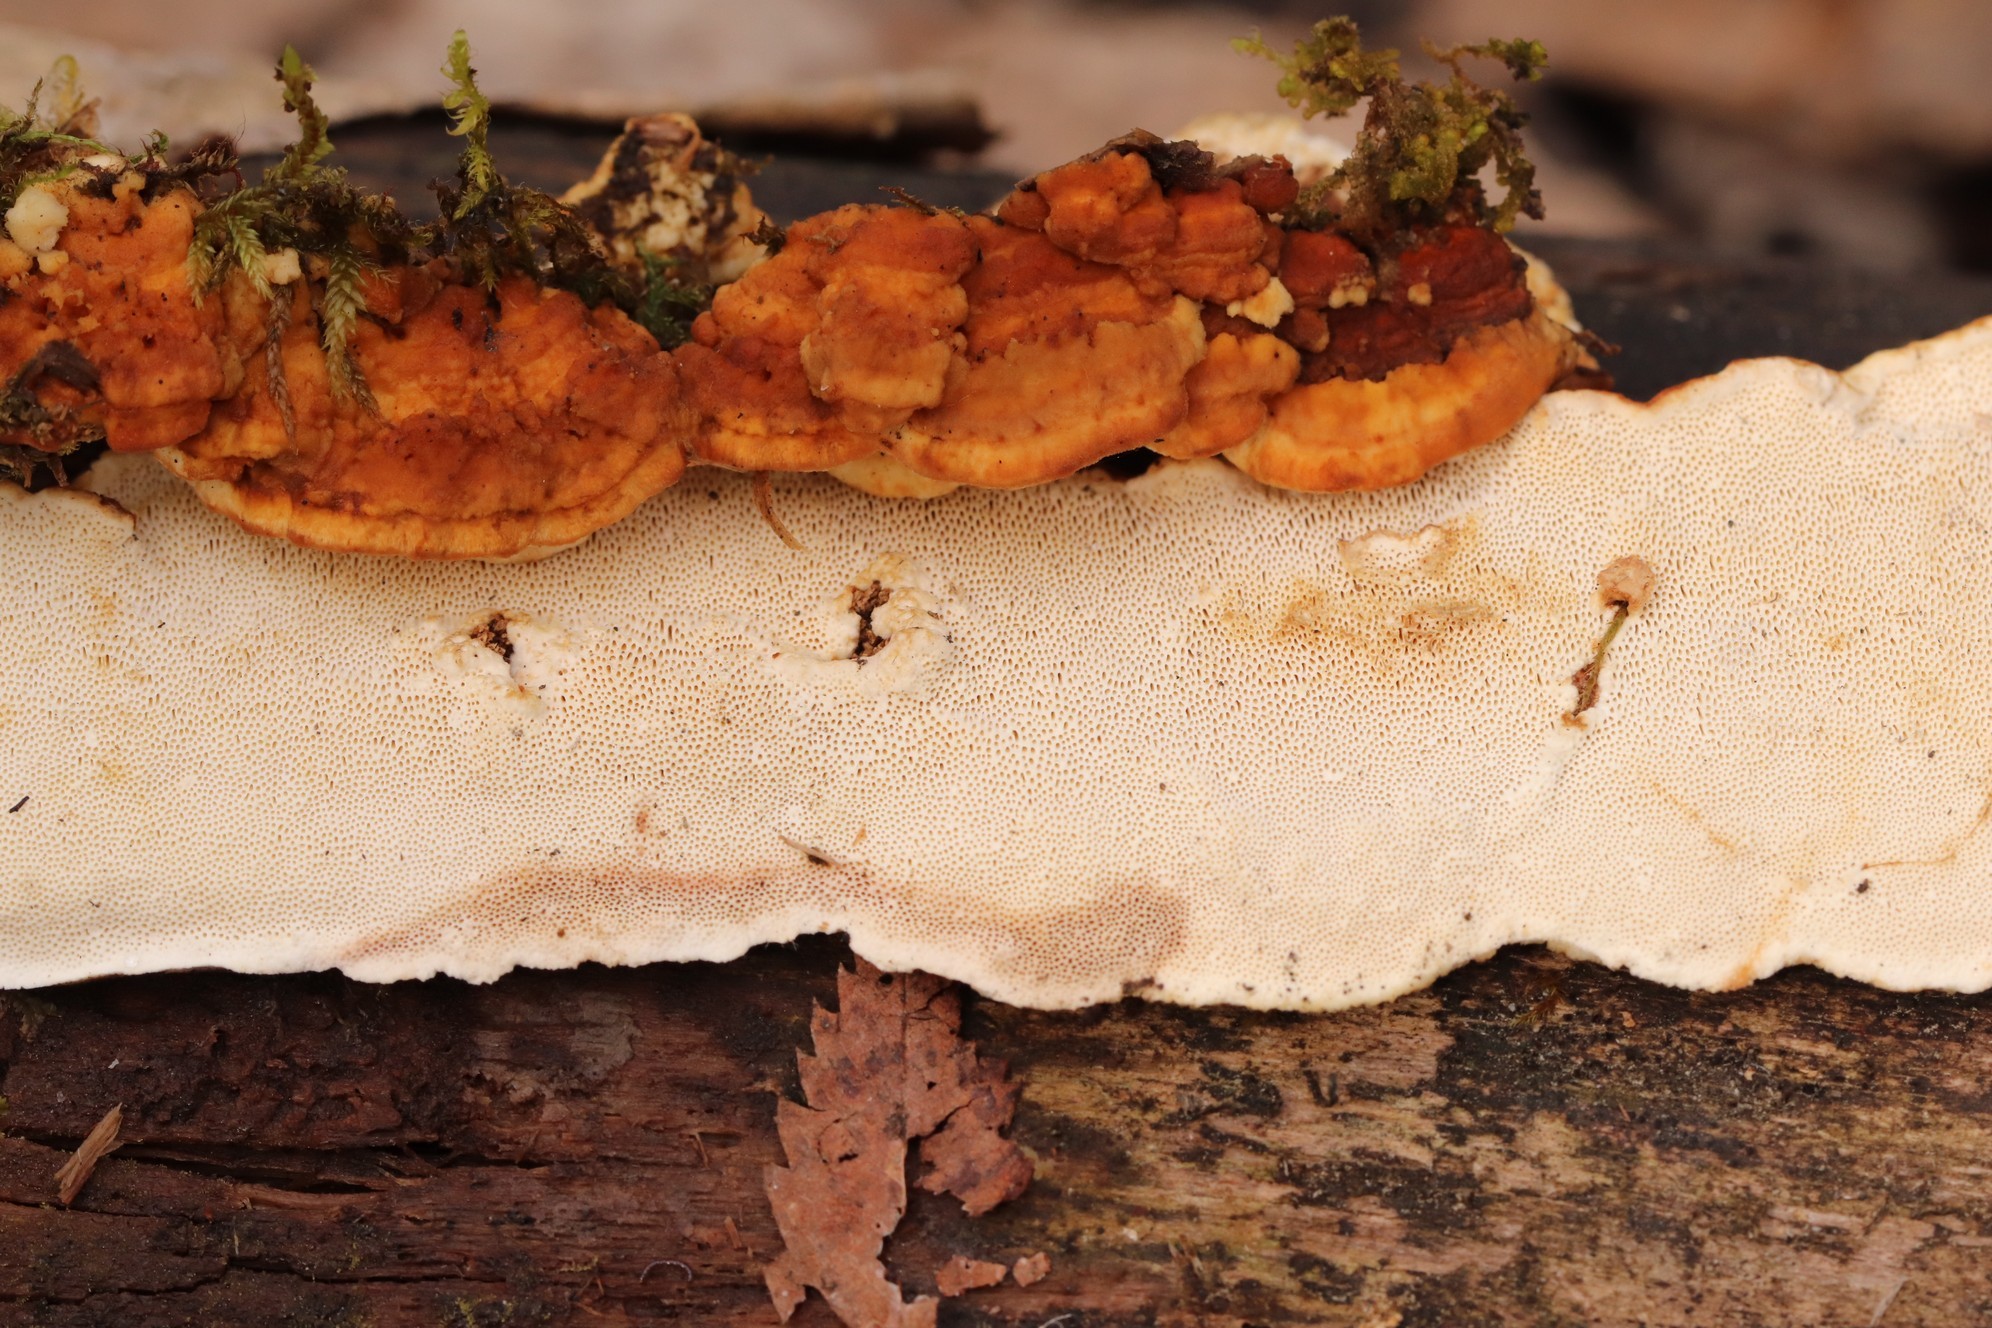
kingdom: Fungi
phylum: Basidiomycota
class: Agaricomycetes
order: Polyporales
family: Fomitopsidaceae
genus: Neoantrodia
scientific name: Neoantrodia serialis
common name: Serried porecrust
